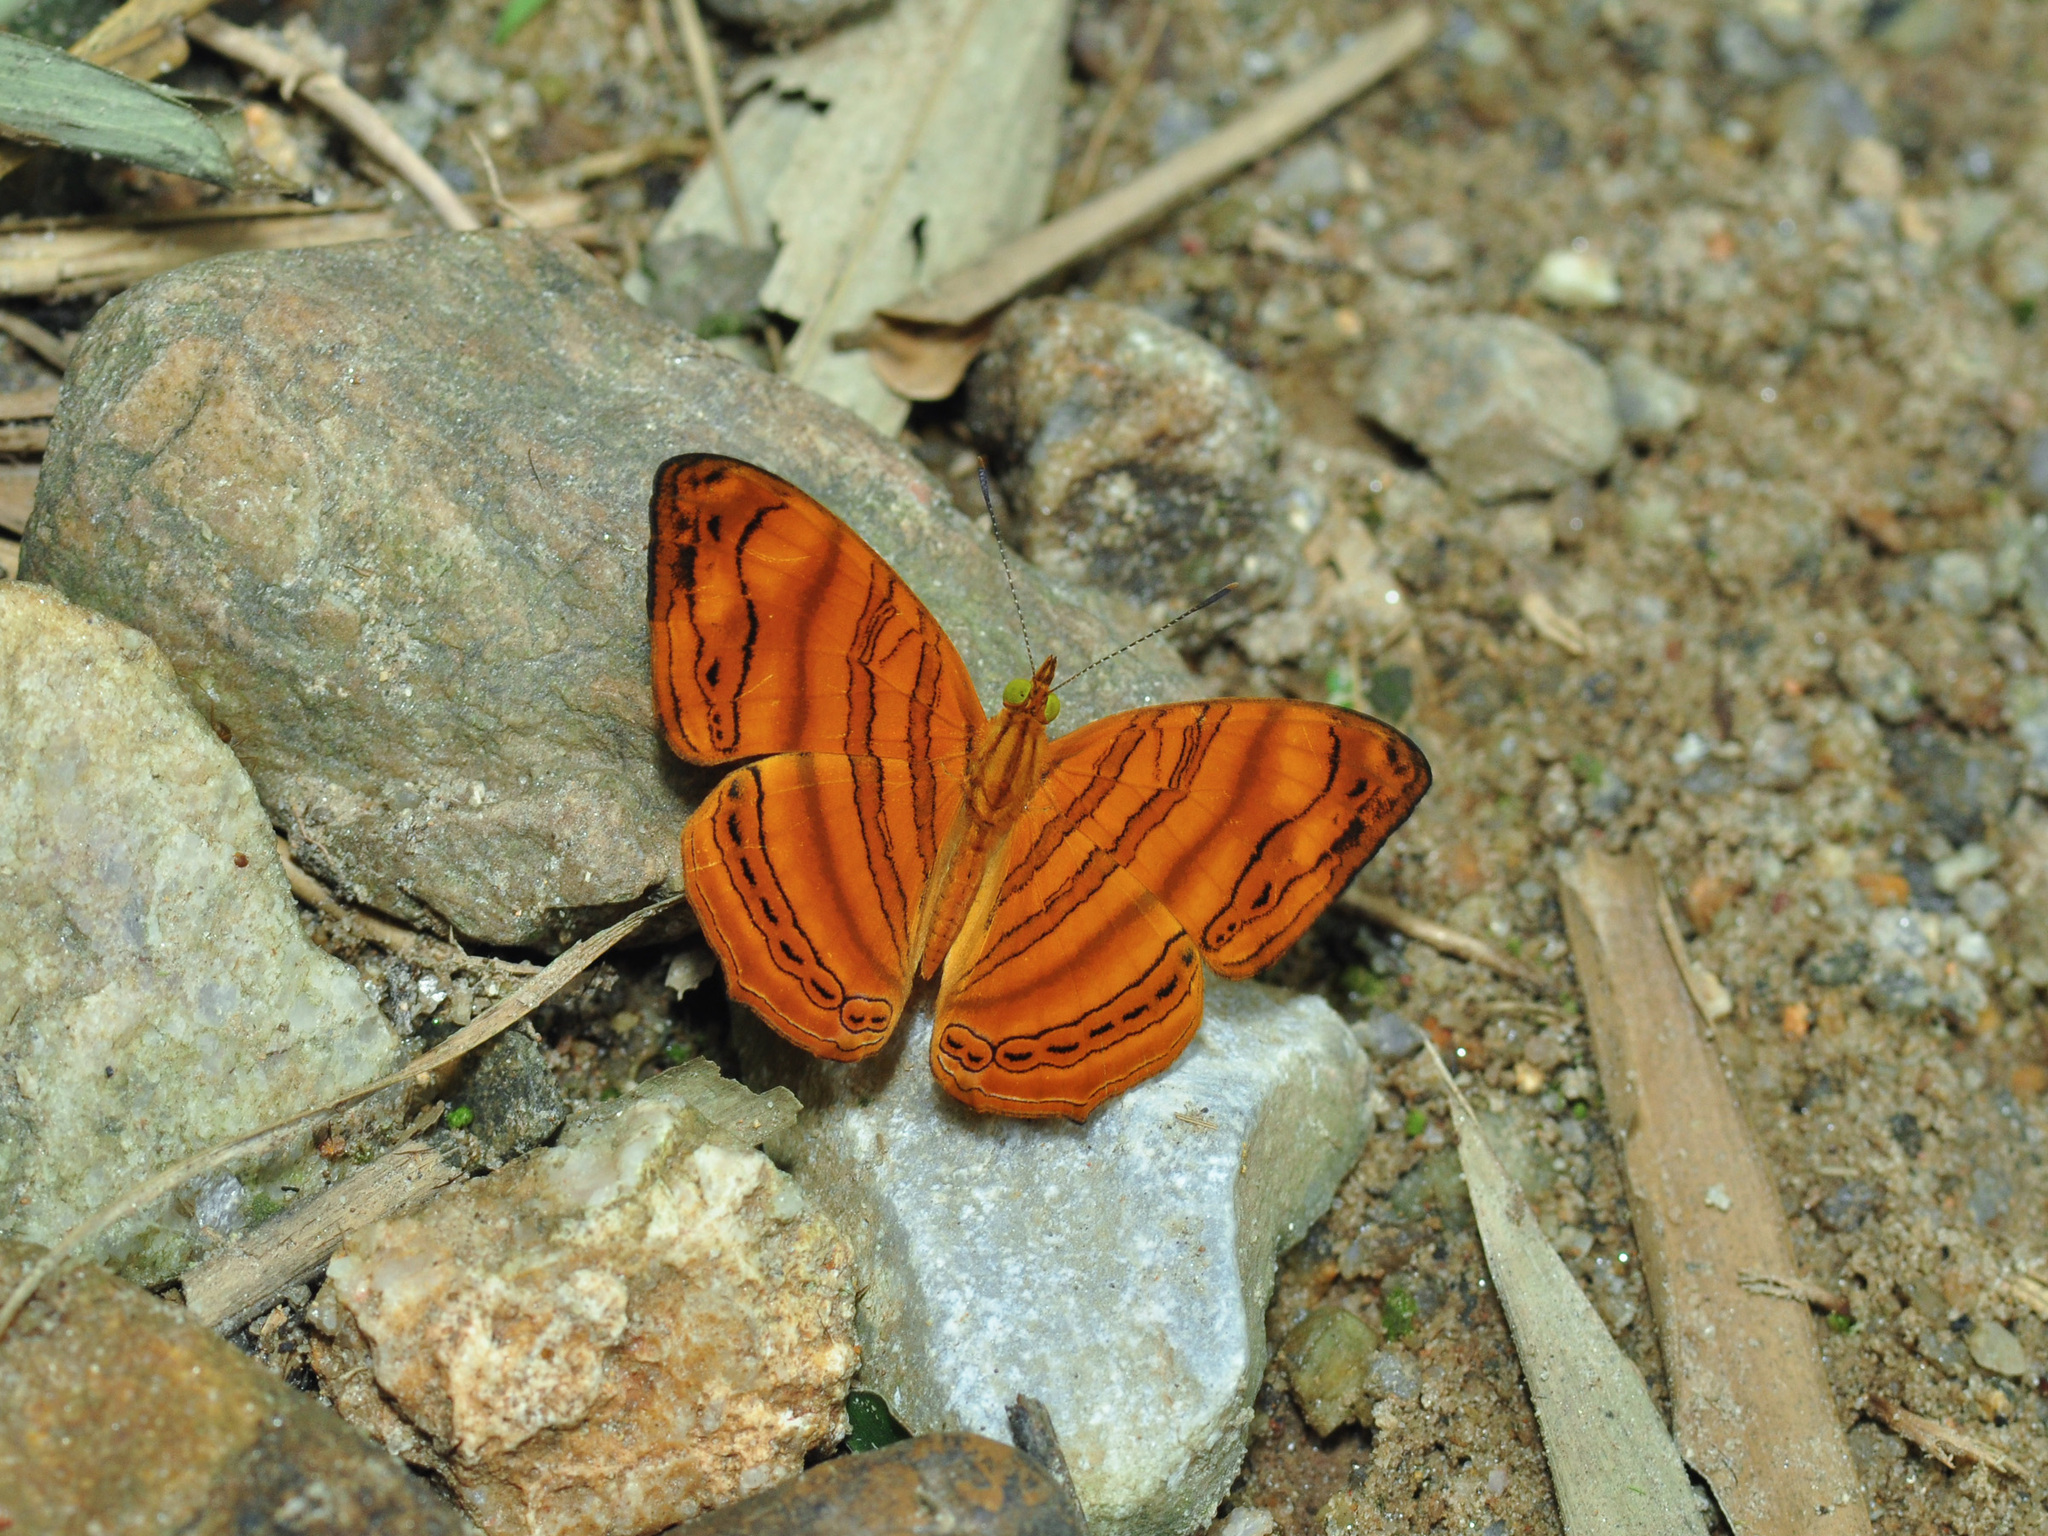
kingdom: Animalia
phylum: Arthropoda
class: Insecta
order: Lepidoptera
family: Nymphalidae
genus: Chersonesia
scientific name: Chersonesia rahria
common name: Wavy maplet
